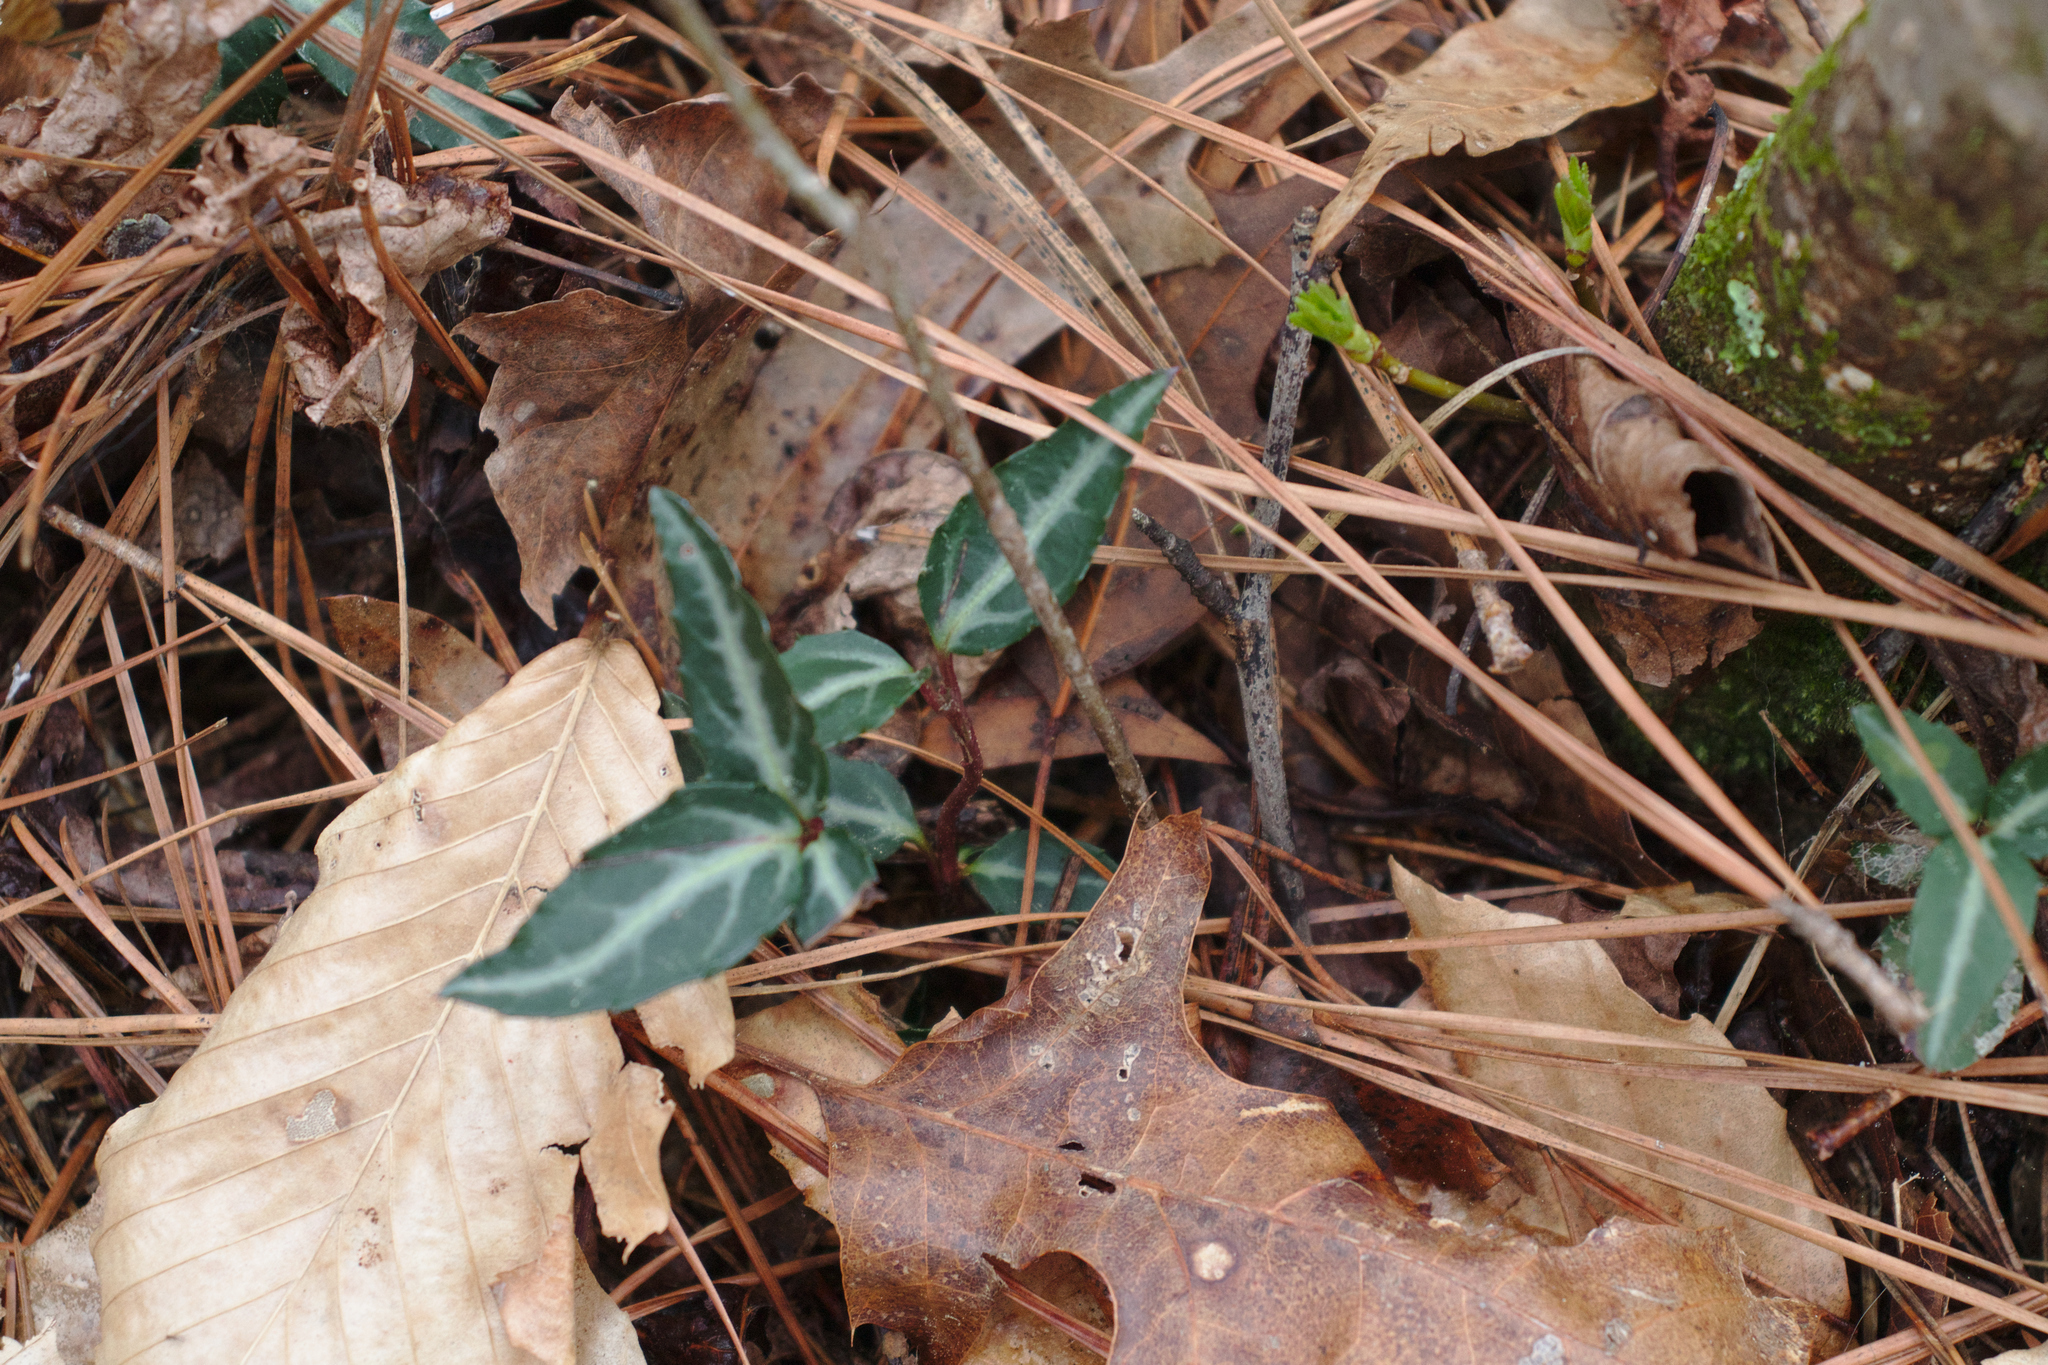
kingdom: Plantae
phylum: Tracheophyta
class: Magnoliopsida
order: Ericales
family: Ericaceae
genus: Chimaphila
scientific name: Chimaphila maculata
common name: Spotted pipsissewa
